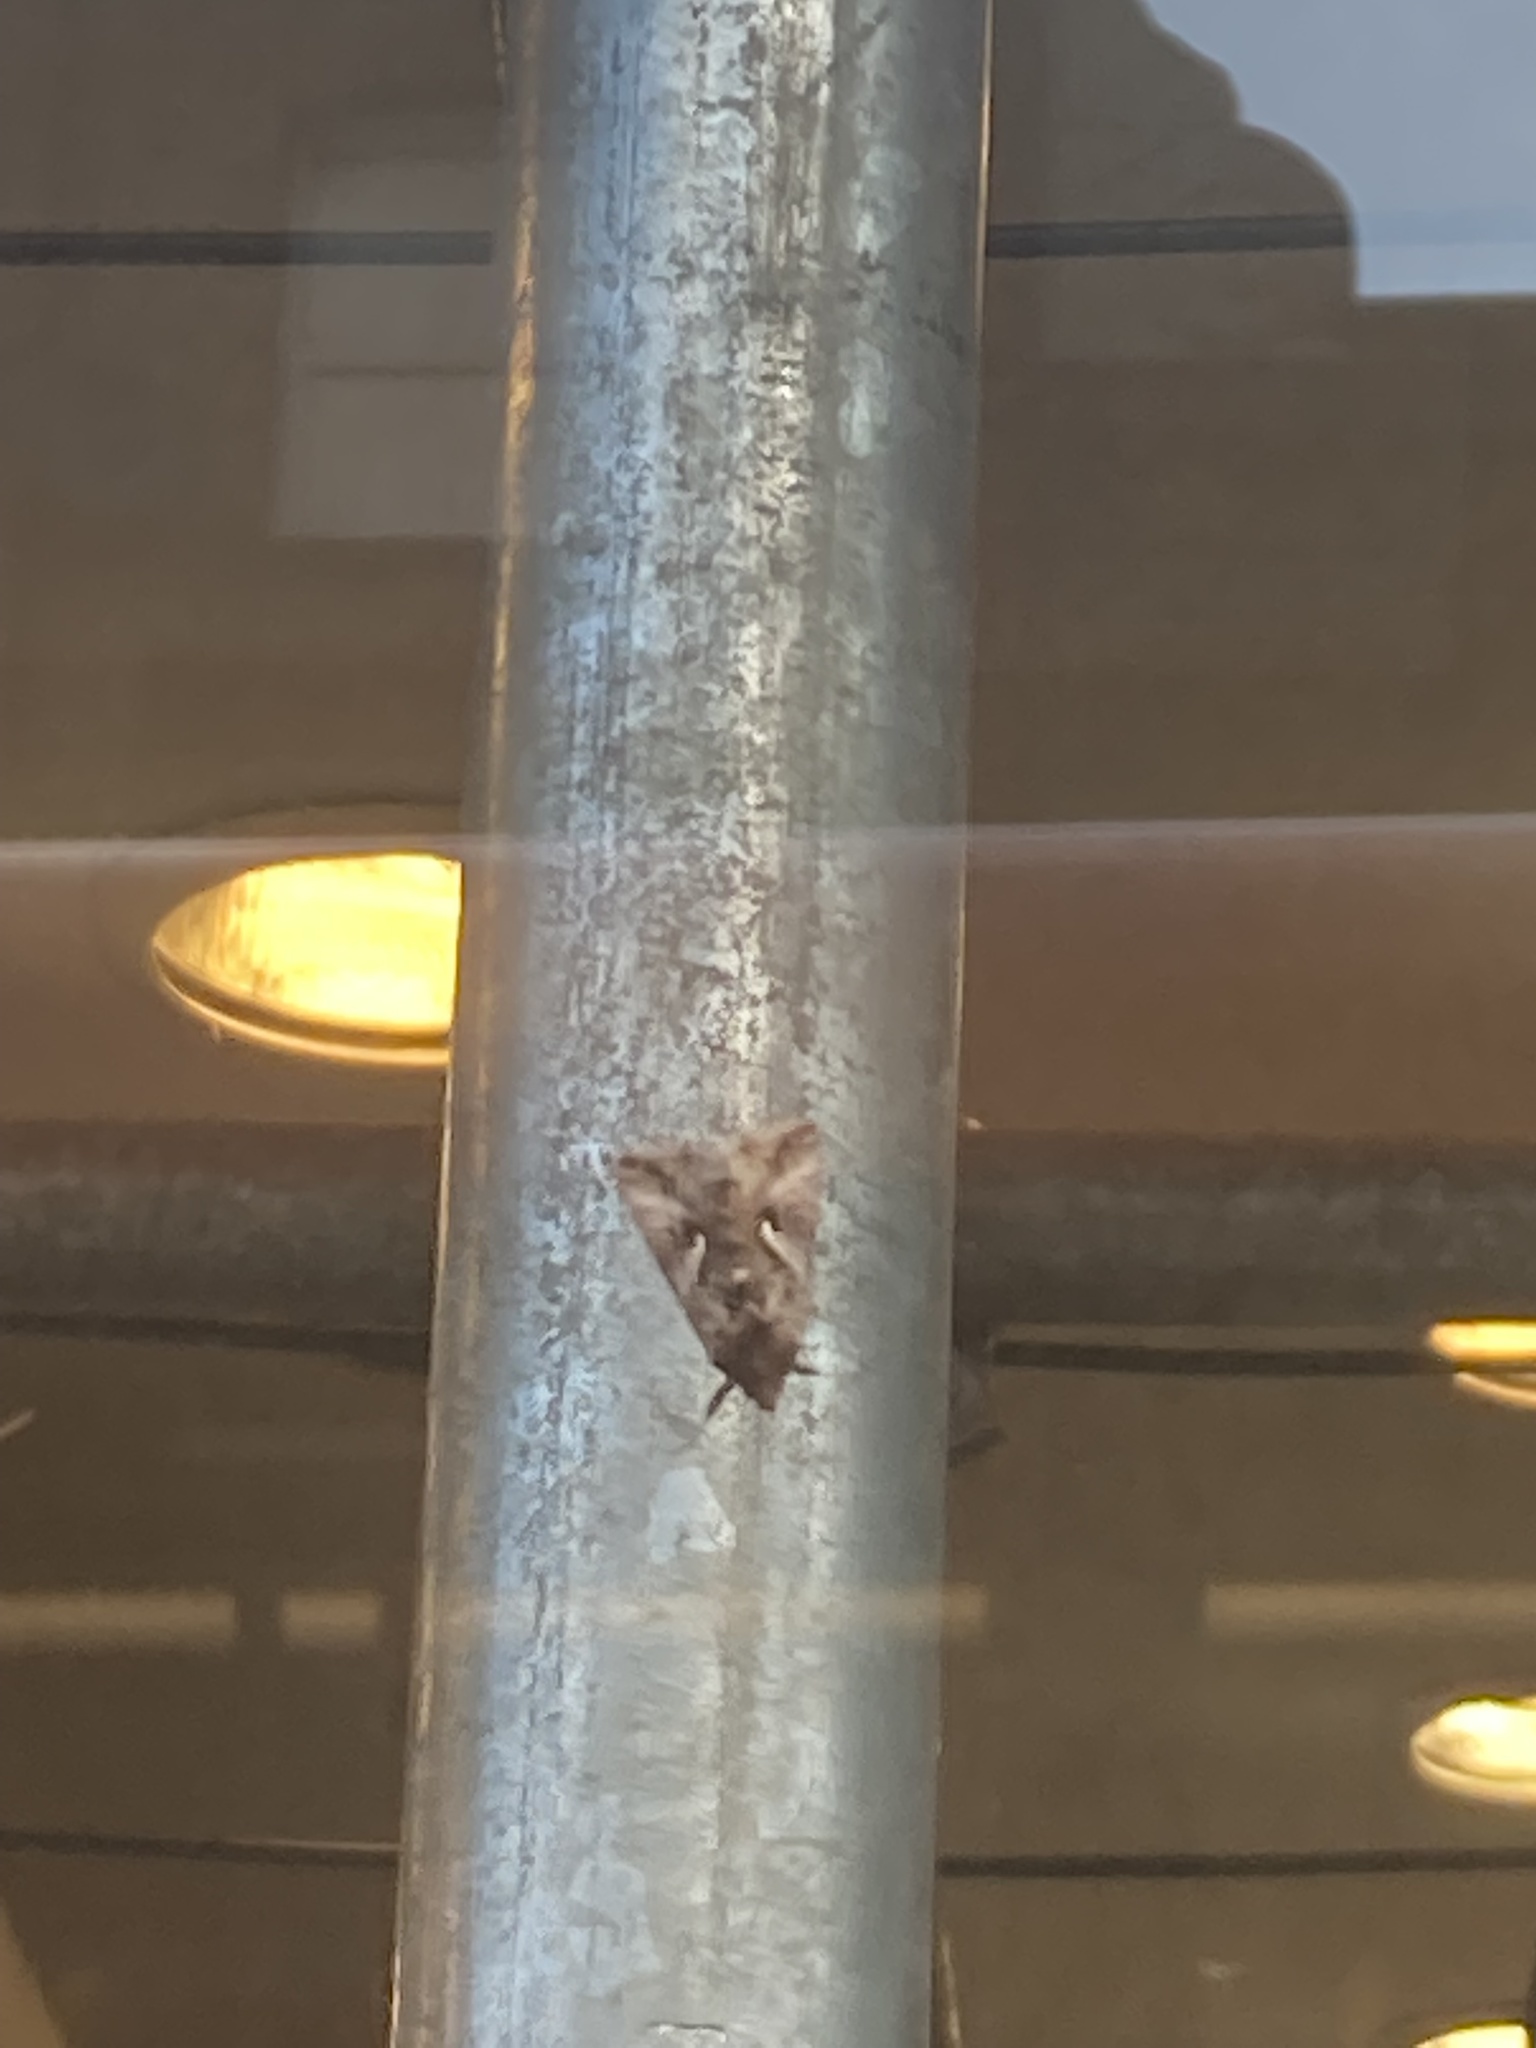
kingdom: Animalia
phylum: Arthropoda
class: Insecta
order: Lepidoptera
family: Noctuidae
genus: Autographa
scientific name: Autographa gamma
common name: Silver y
